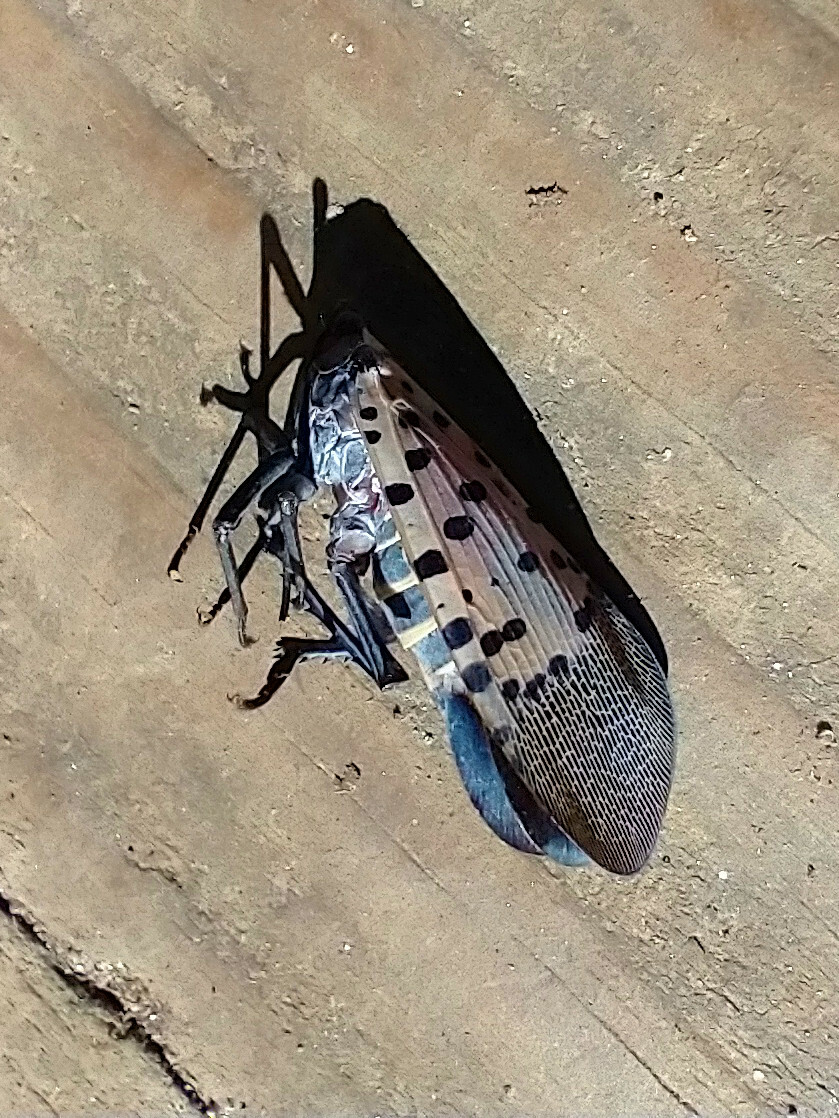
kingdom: Animalia
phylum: Arthropoda
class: Insecta
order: Hemiptera
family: Fulgoridae
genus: Lycorma
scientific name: Lycorma delicatula
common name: Spotted lanternfly
